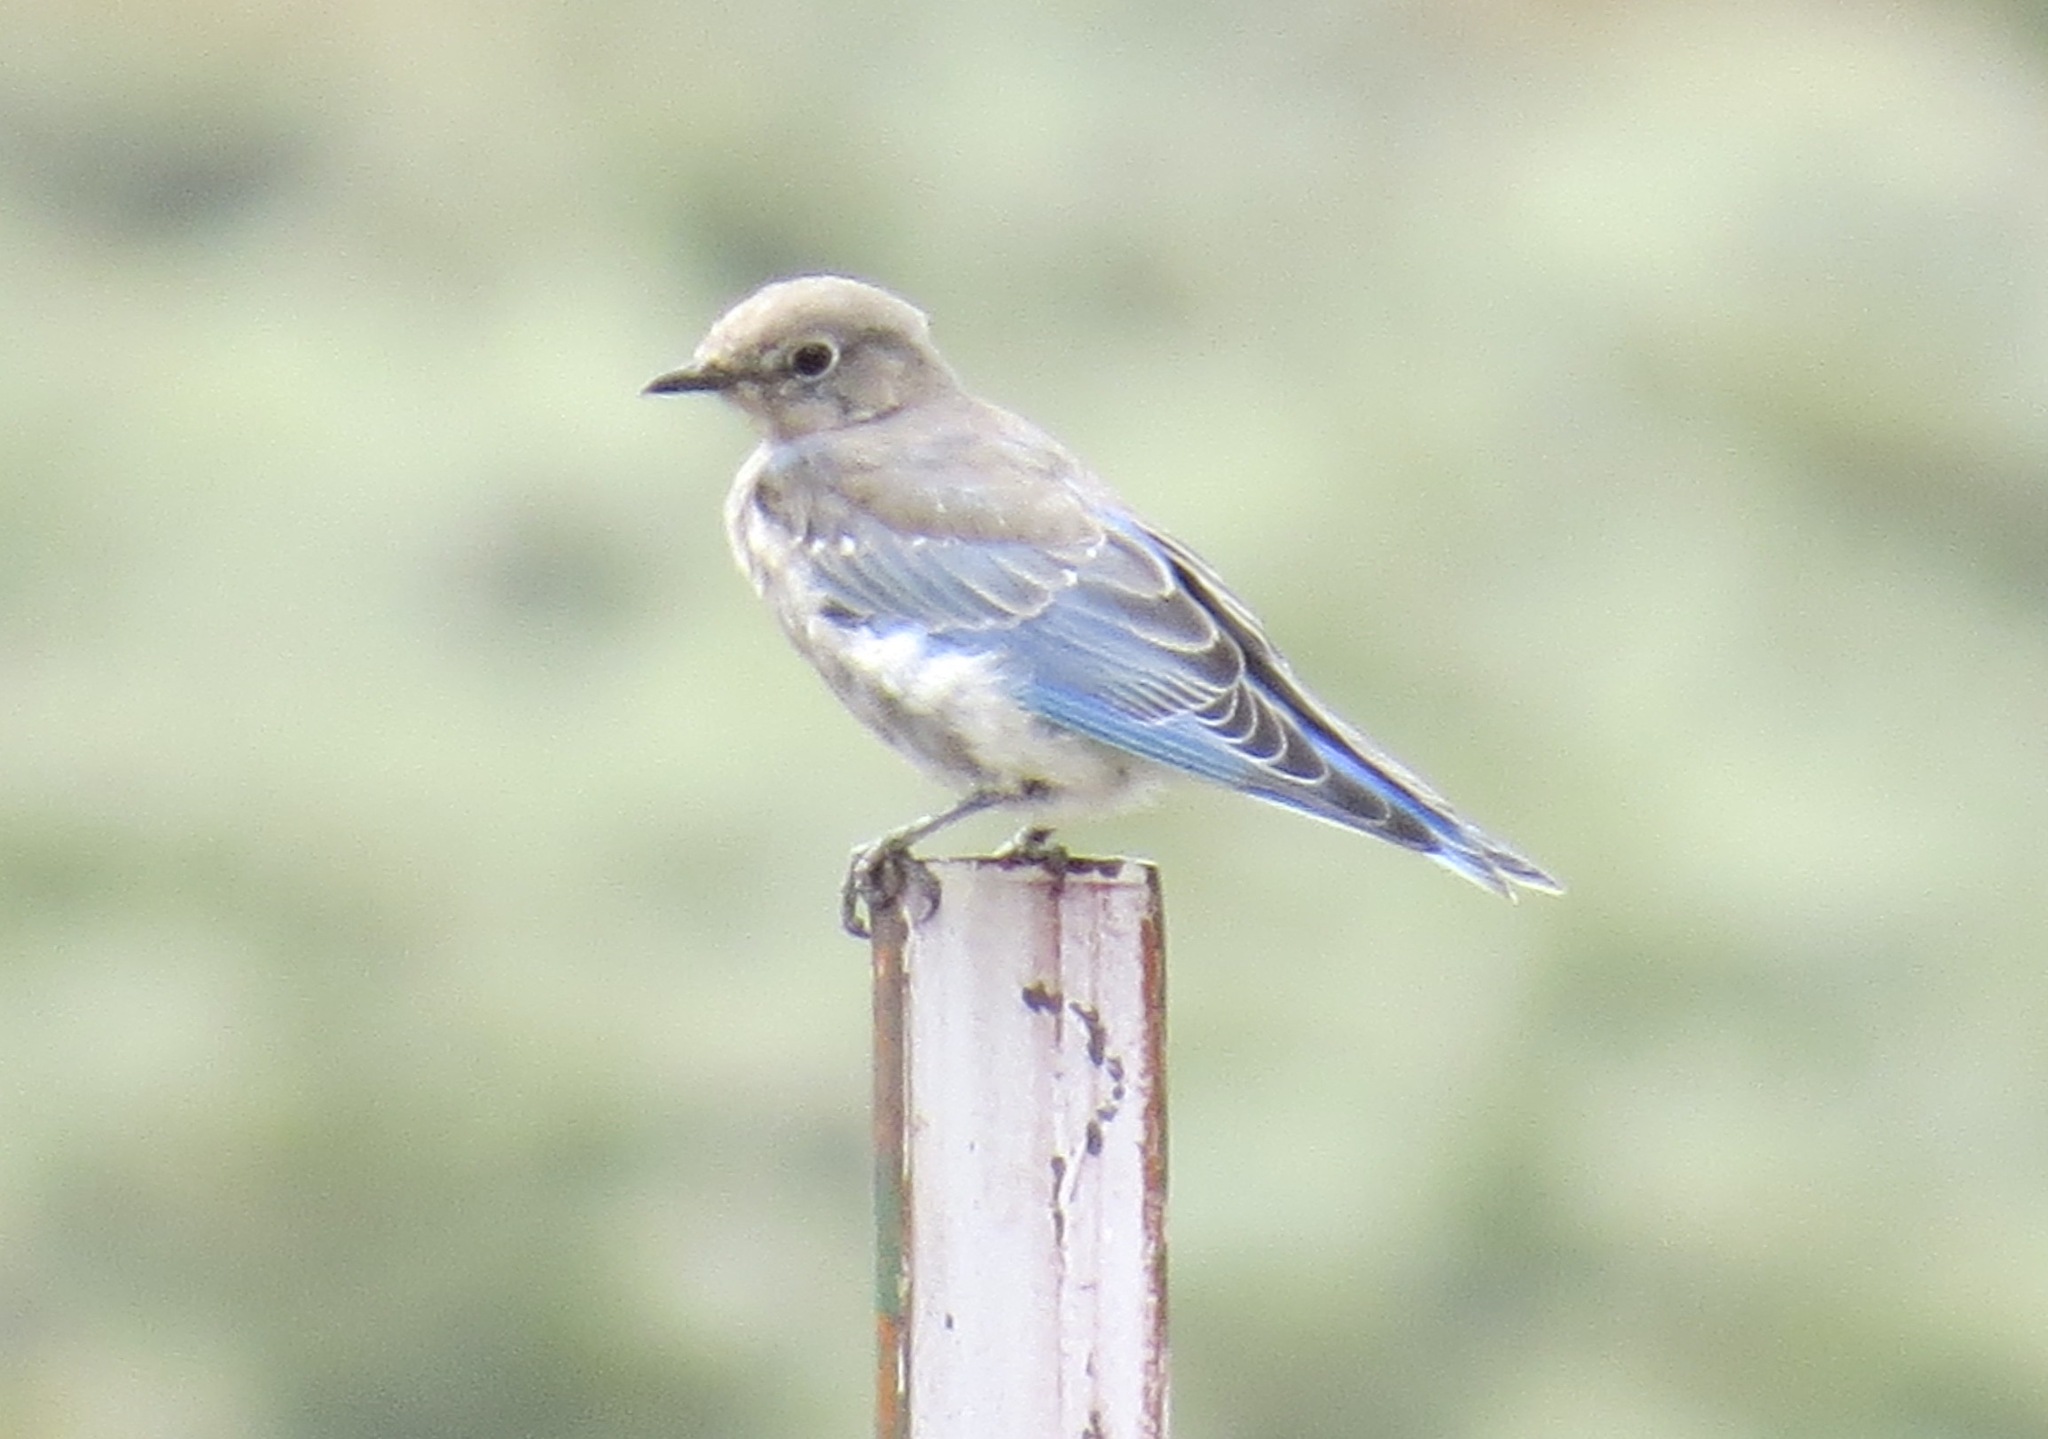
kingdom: Animalia
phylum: Chordata
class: Aves
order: Passeriformes
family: Turdidae
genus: Sialia
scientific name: Sialia currucoides
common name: Mountain bluebird
